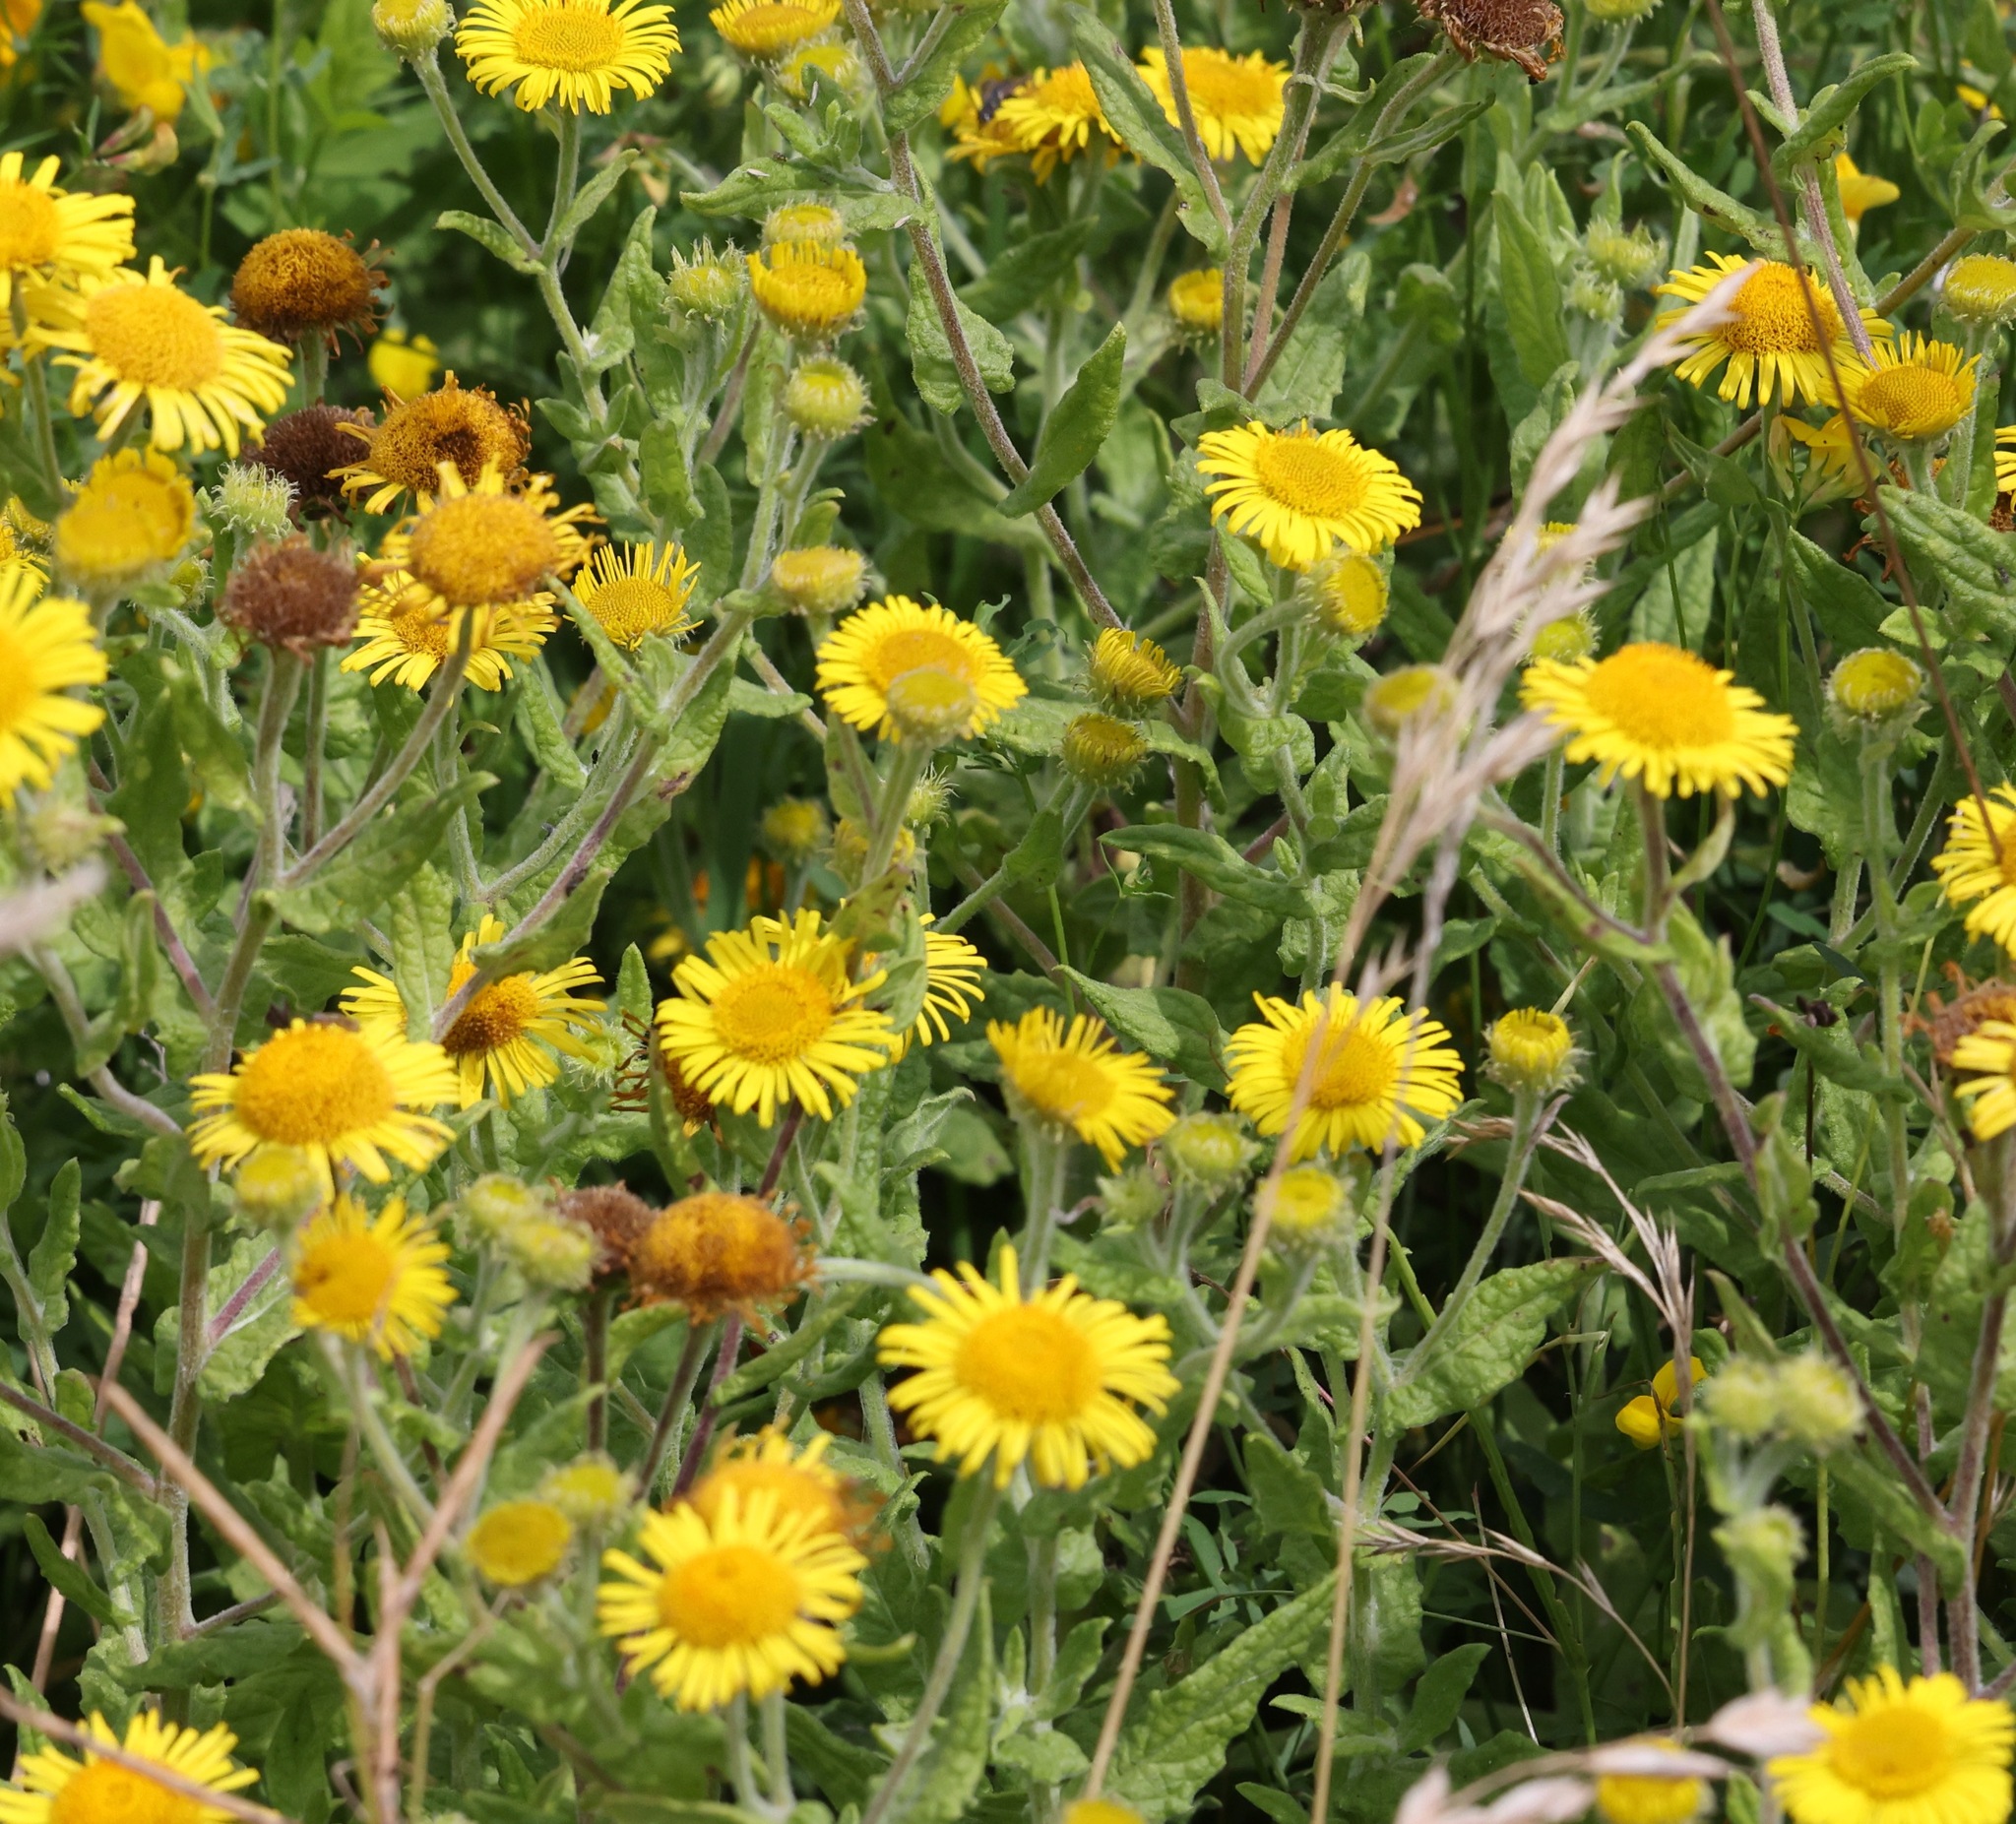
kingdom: Plantae
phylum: Tracheophyta
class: Magnoliopsida
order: Asterales
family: Asteraceae
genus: Pulicaria
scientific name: Pulicaria dysenterica
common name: Common fleabane
